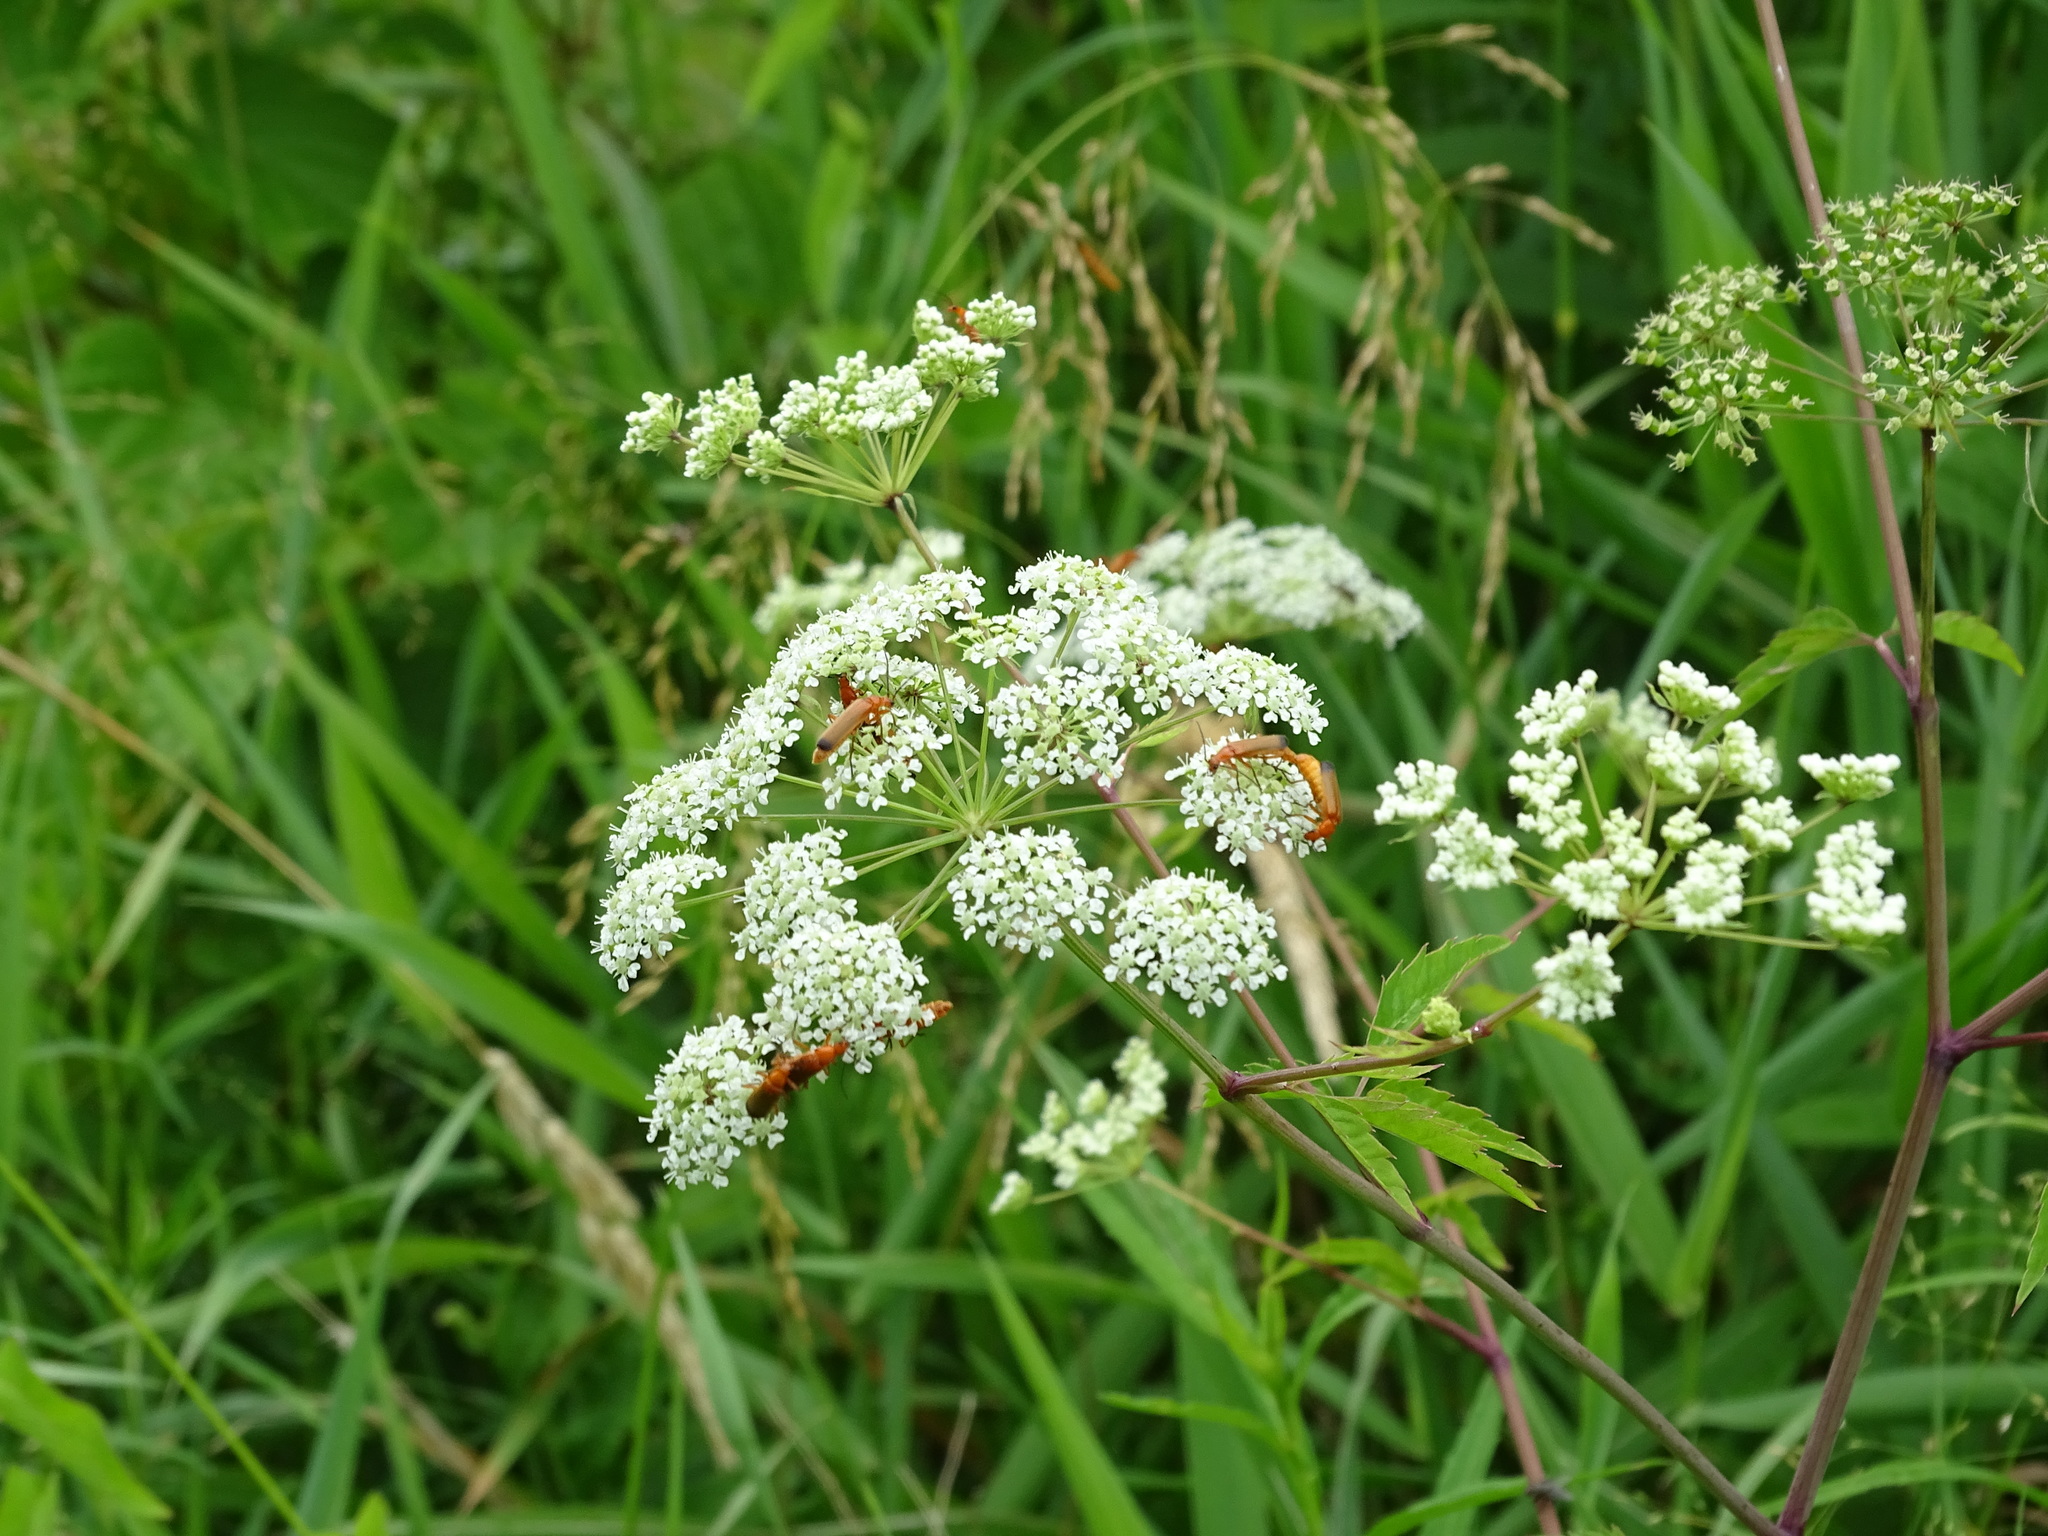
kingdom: Plantae
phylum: Tracheophyta
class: Magnoliopsida
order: Apiales
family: Apiaceae
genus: Cicuta
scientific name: Cicuta maculata
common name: Spotted cowbane
